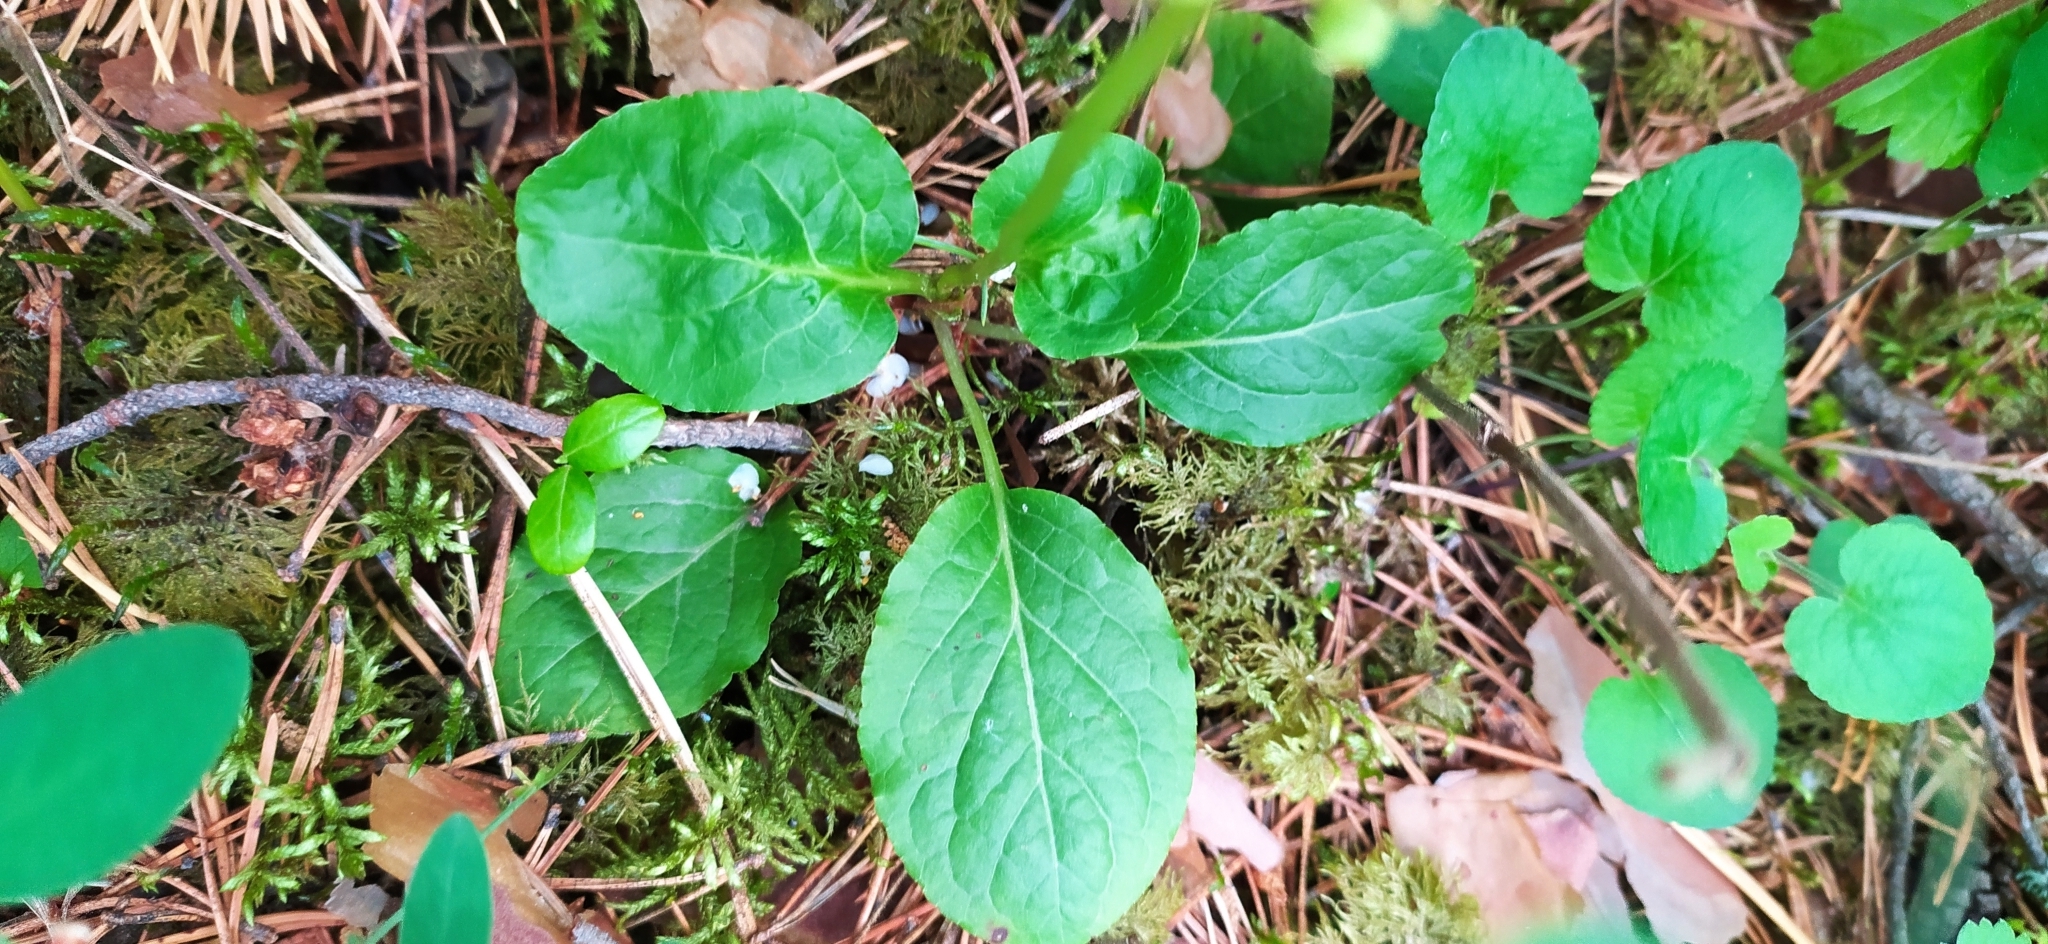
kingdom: Plantae
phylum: Tracheophyta
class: Magnoliopsida
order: Ericales
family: Ericaceae
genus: Pyrola
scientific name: Pyrola minor
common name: Common wintergreen
